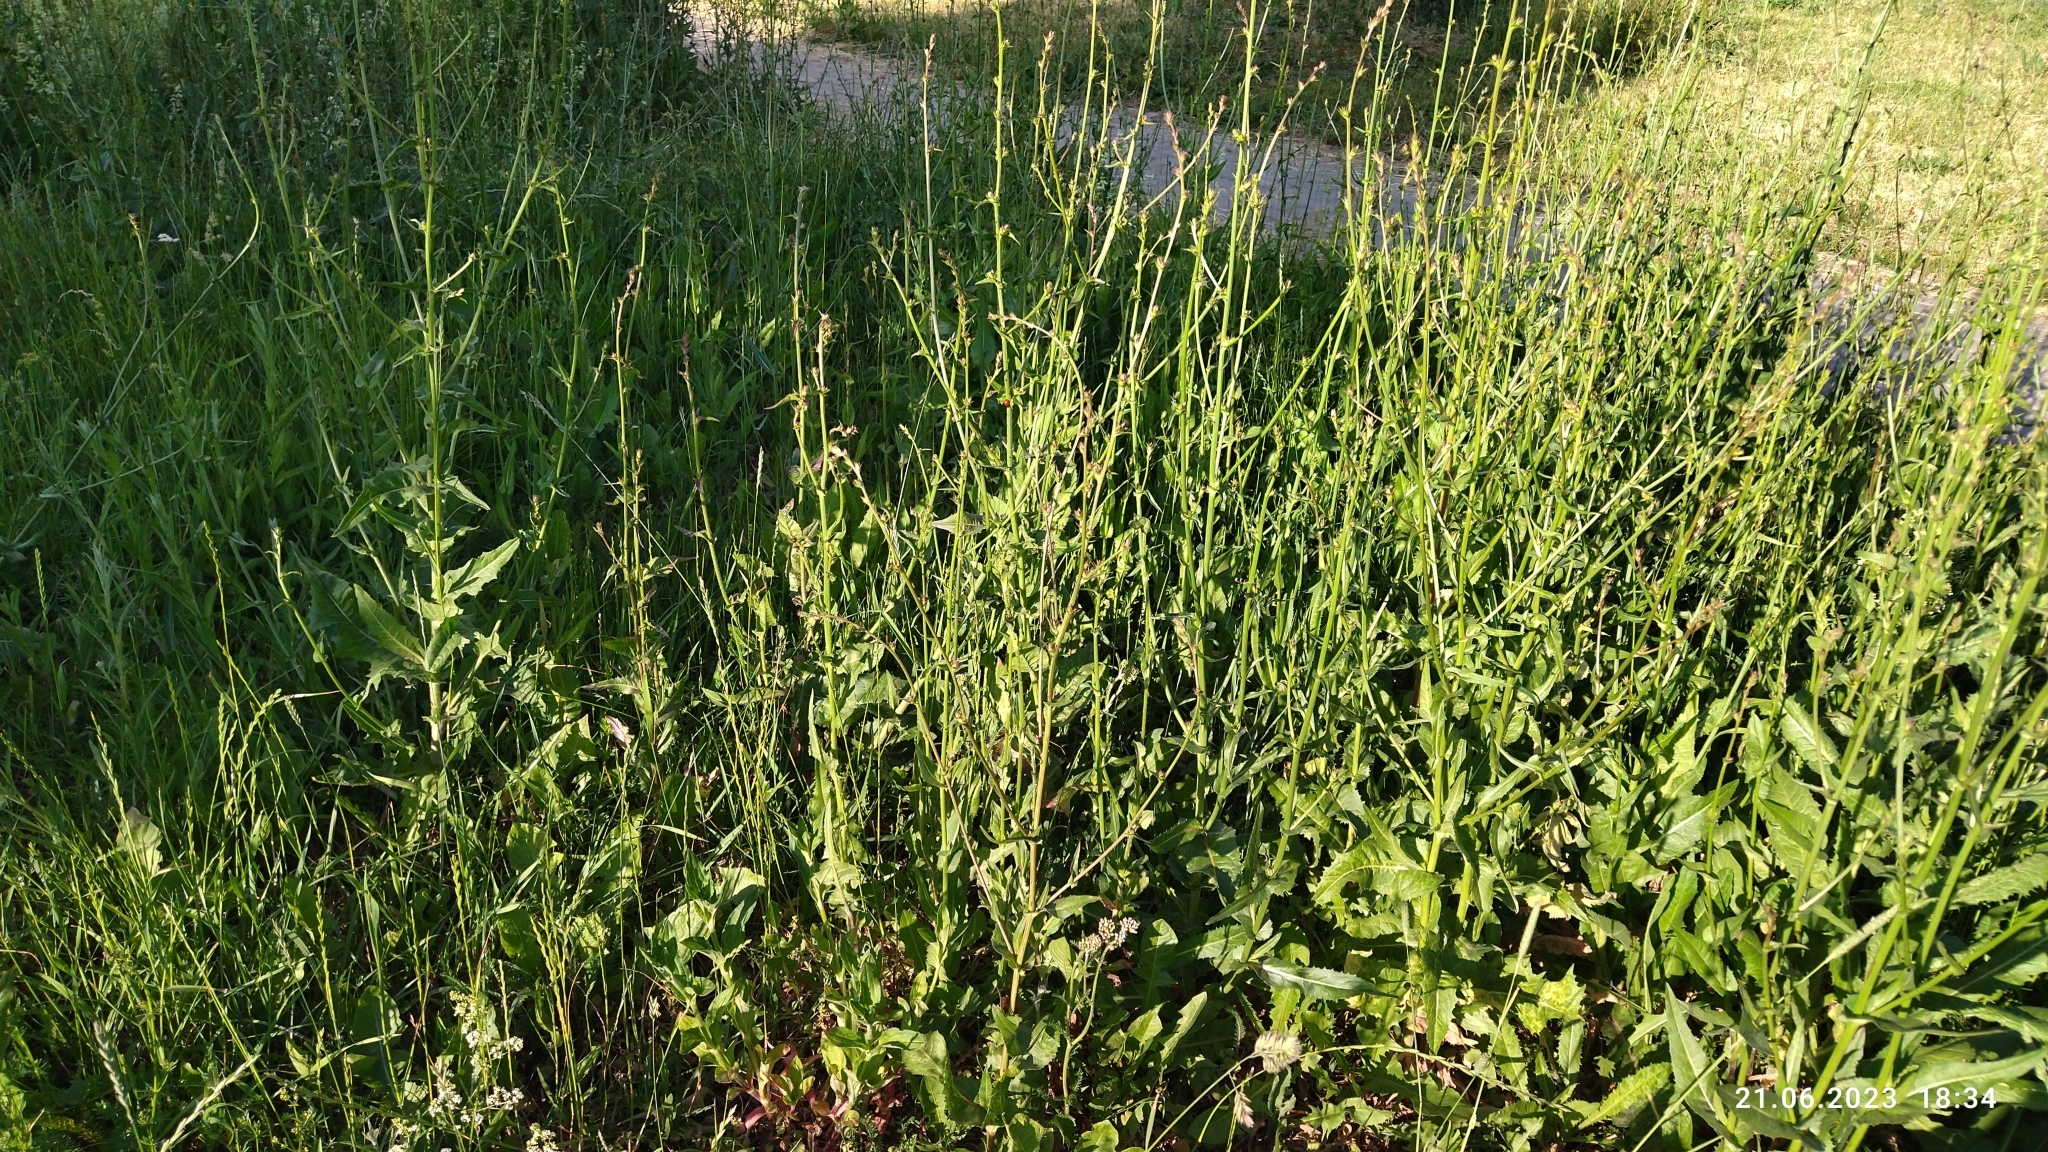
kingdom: Plantae
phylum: Tracheophyta
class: Magnoliopsida
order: Asterales
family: Asteraceae
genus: Cichorium
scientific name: Cichorium intybus
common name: Chicory
